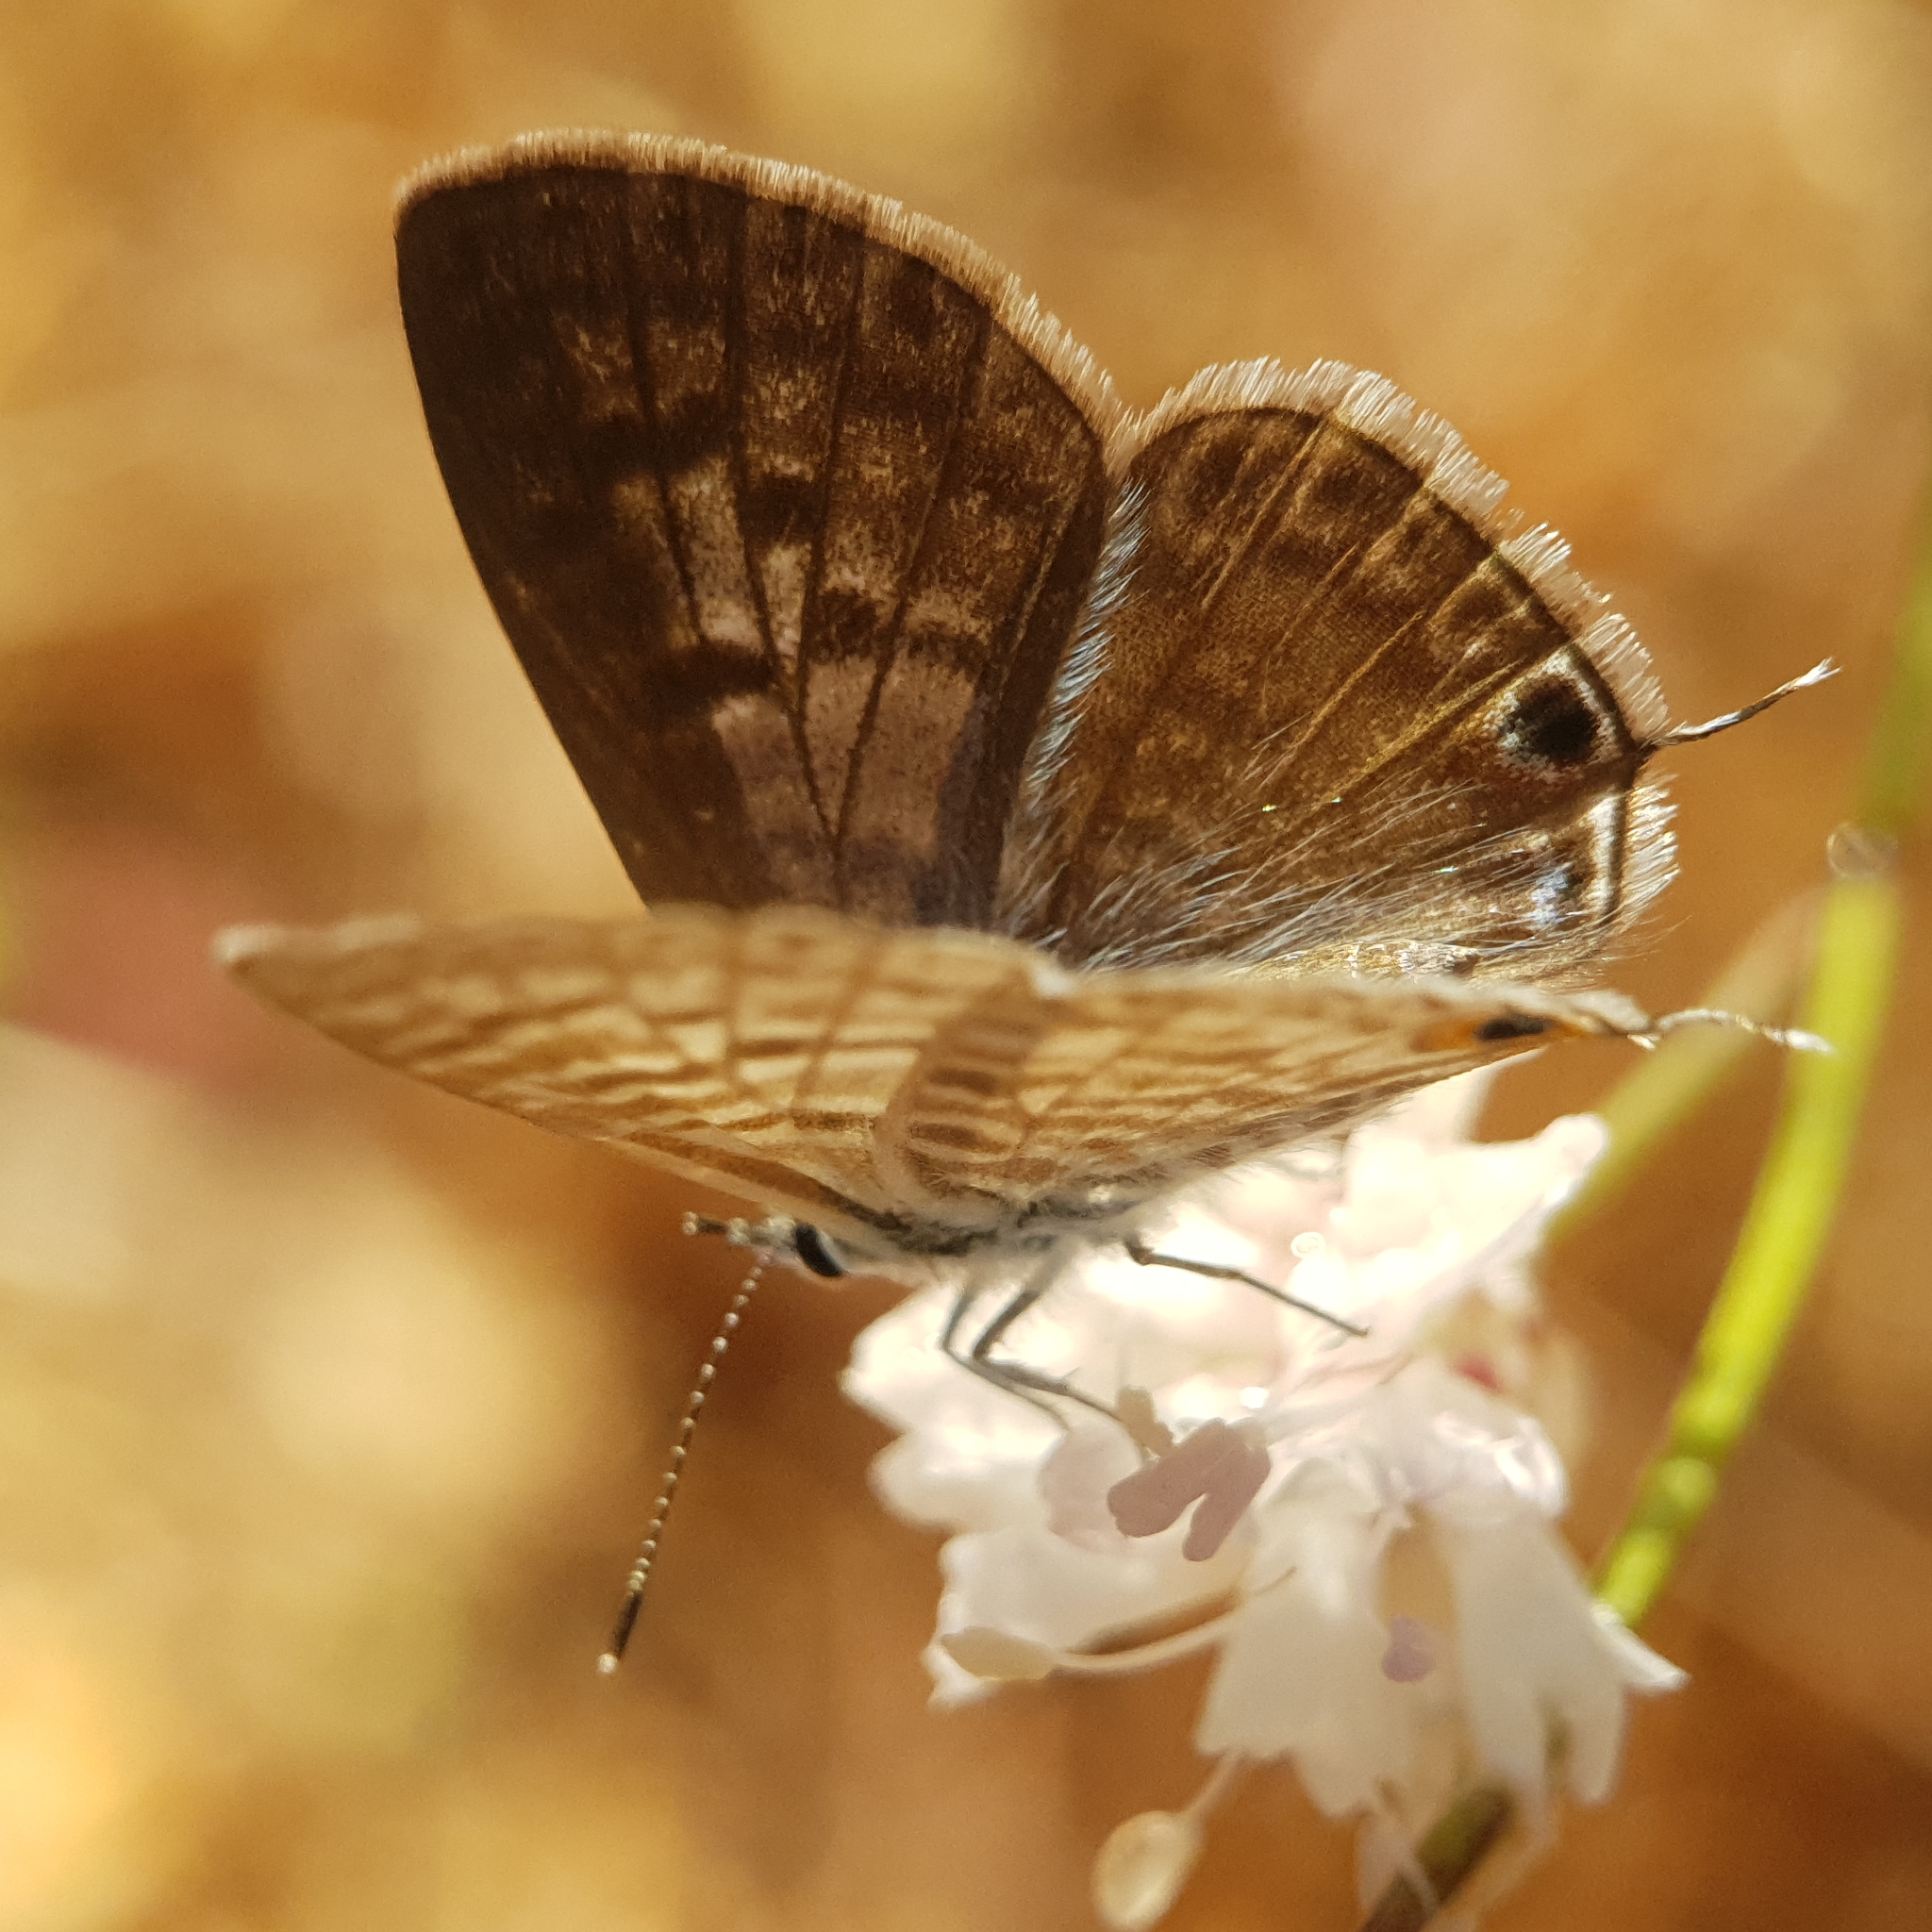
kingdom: Animalia
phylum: Arthropoda
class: Insecta
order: Lepidoptera
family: Lycaenidae
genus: Leptotes
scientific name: Leptotes pirithous
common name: Lang's short-tailed blue
